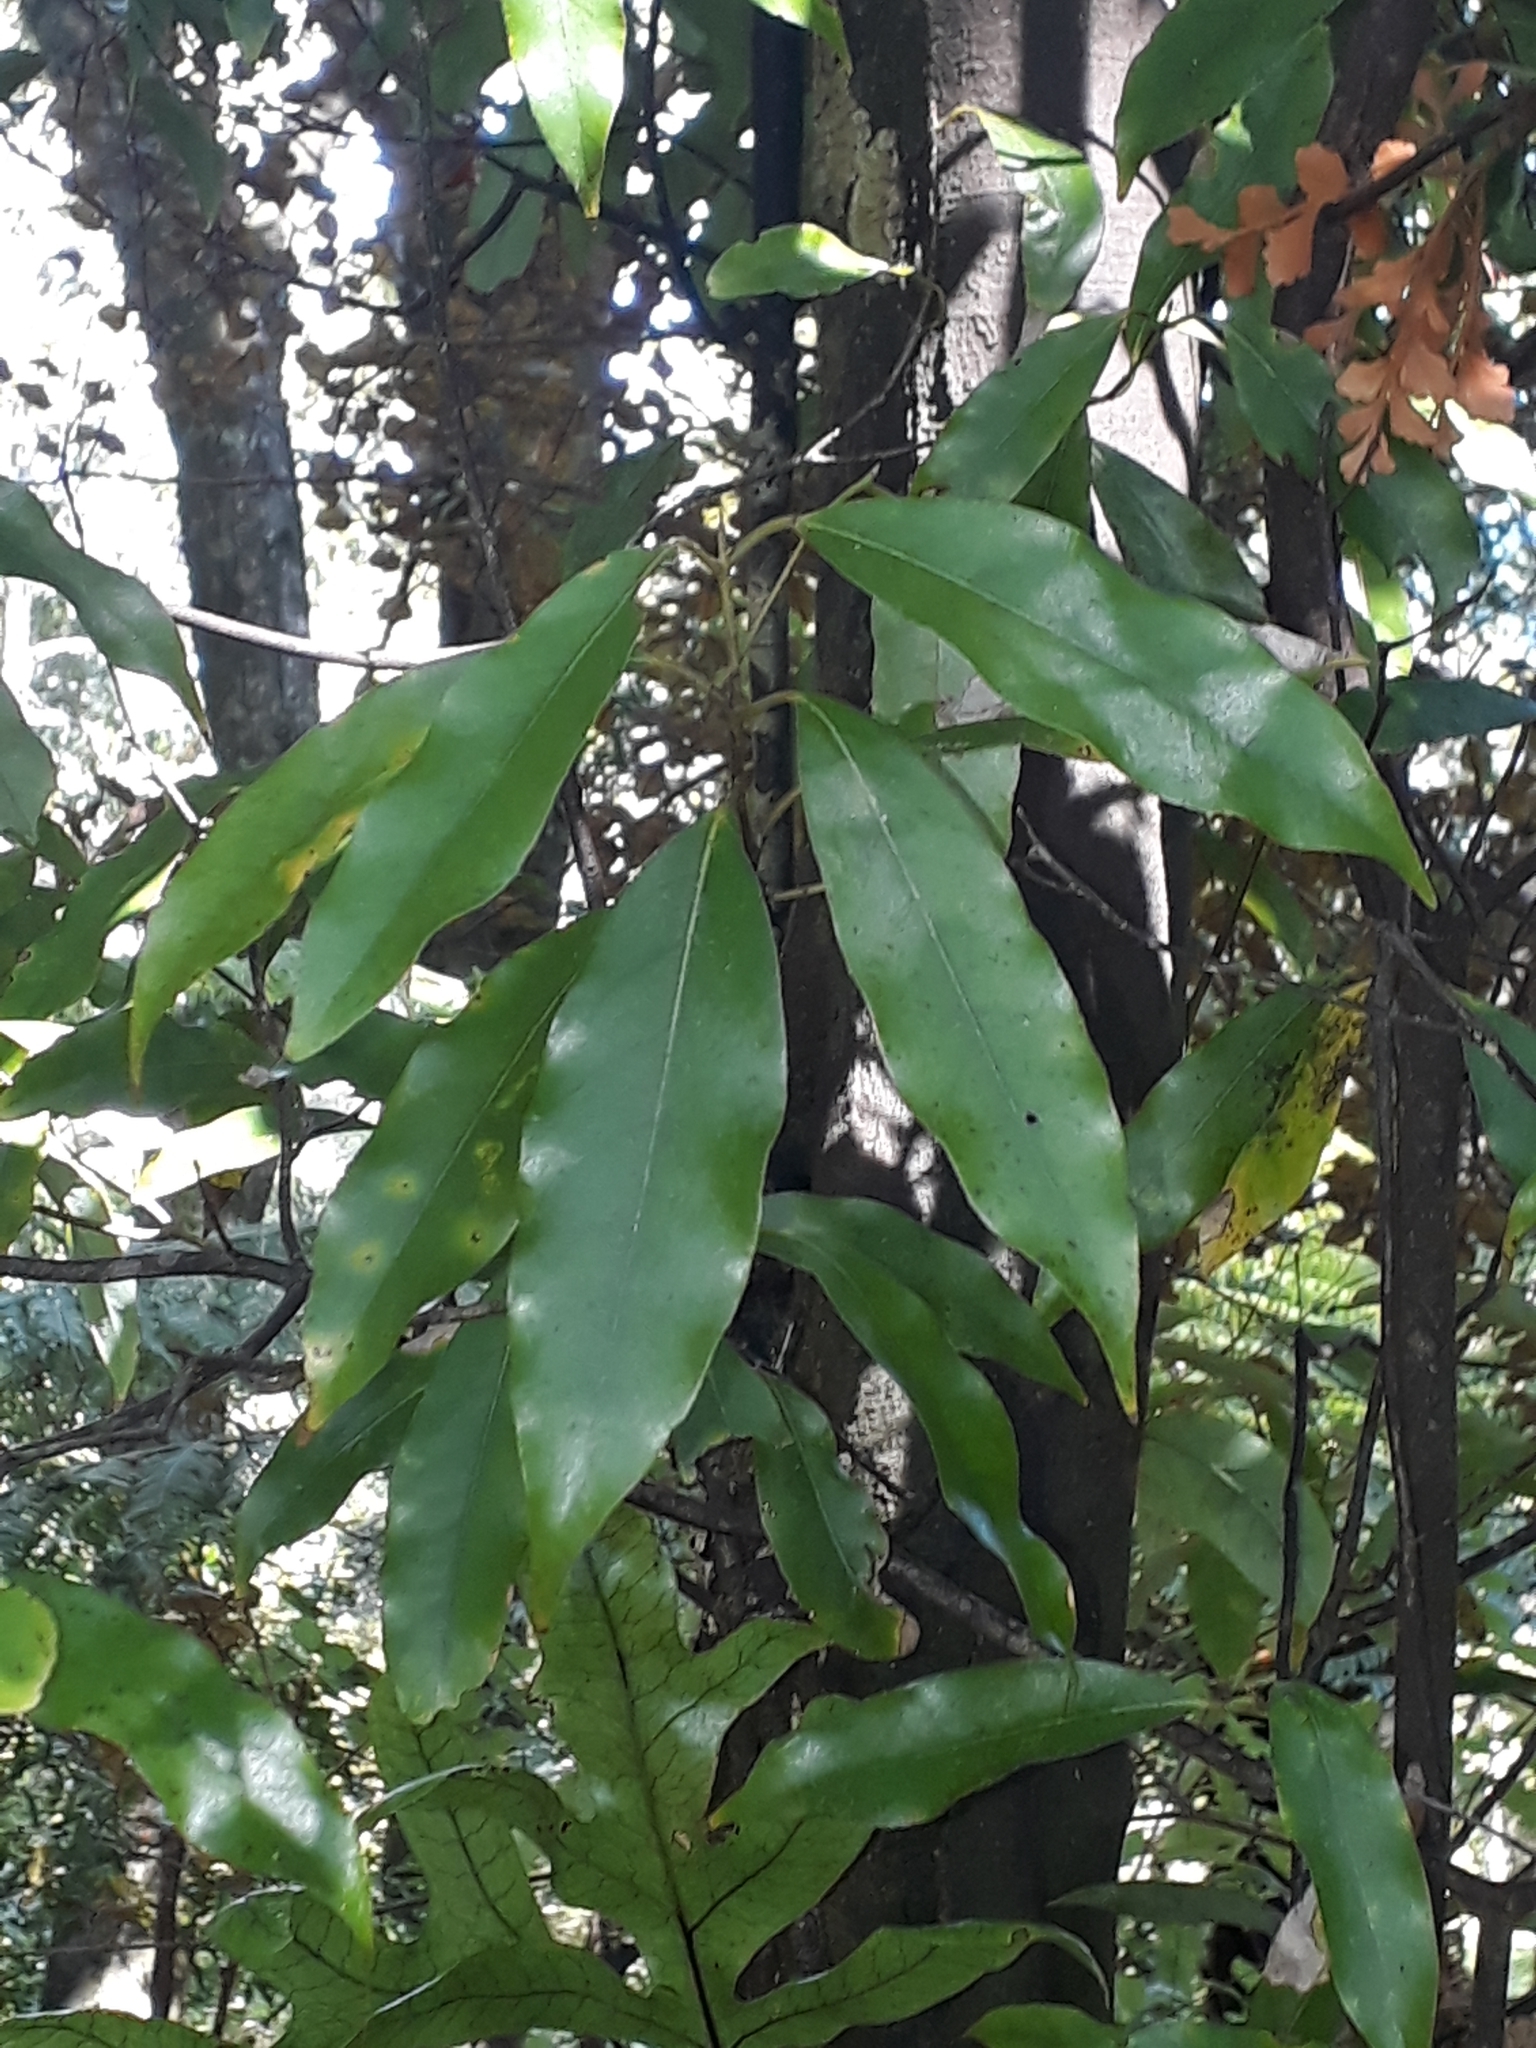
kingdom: Plantae
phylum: Tracheophyta
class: Magnoliopsida
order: Laurales
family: Lauraceae
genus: Beilschmiedia
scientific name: Beilschmiedia tawa
